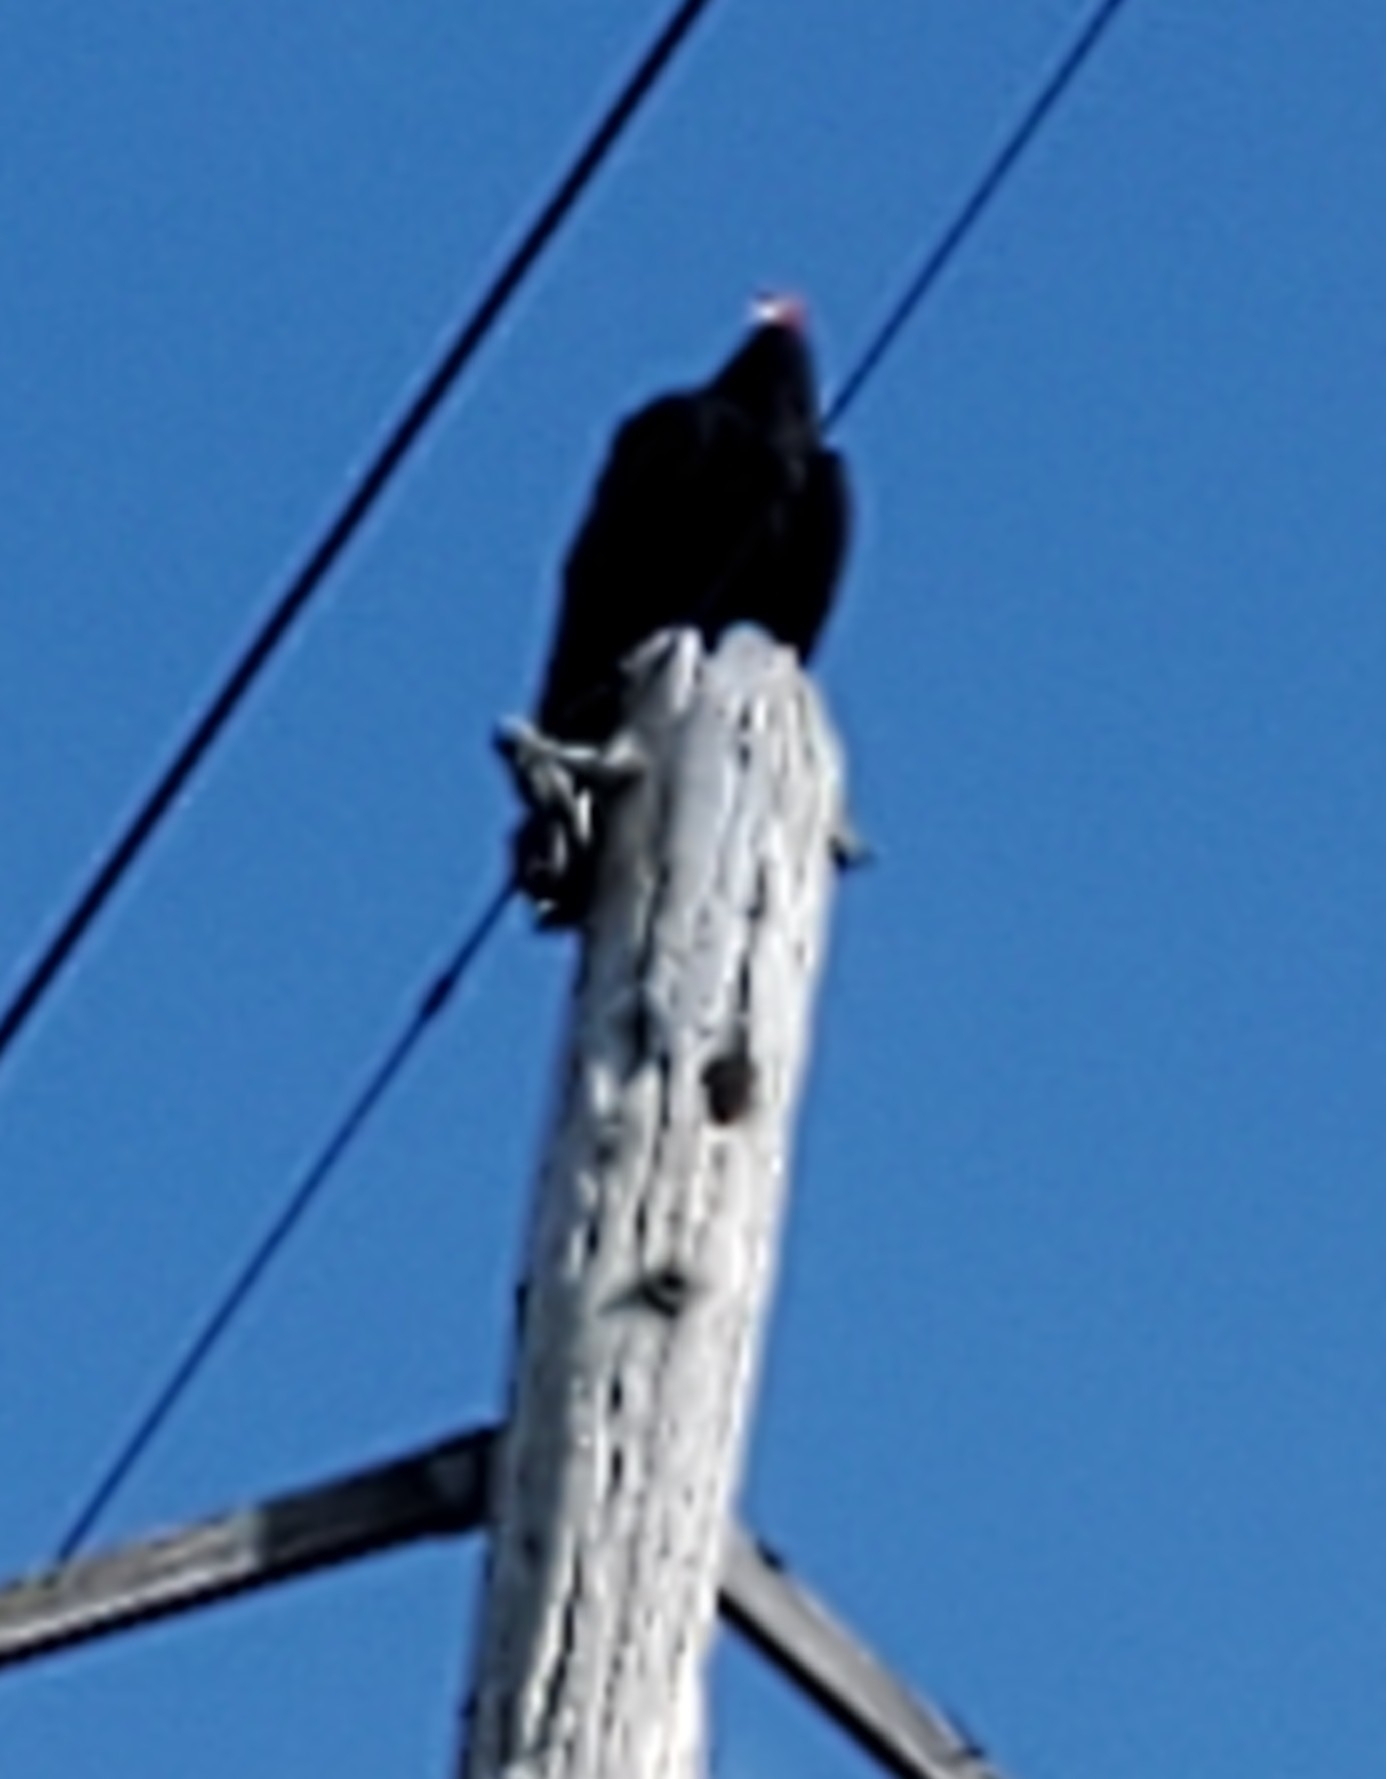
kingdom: Animalia
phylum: Chordata
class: Aves
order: Accipitriformes
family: Cathartidae
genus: Cathartes
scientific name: Cathartes aura
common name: Turkey vulture
